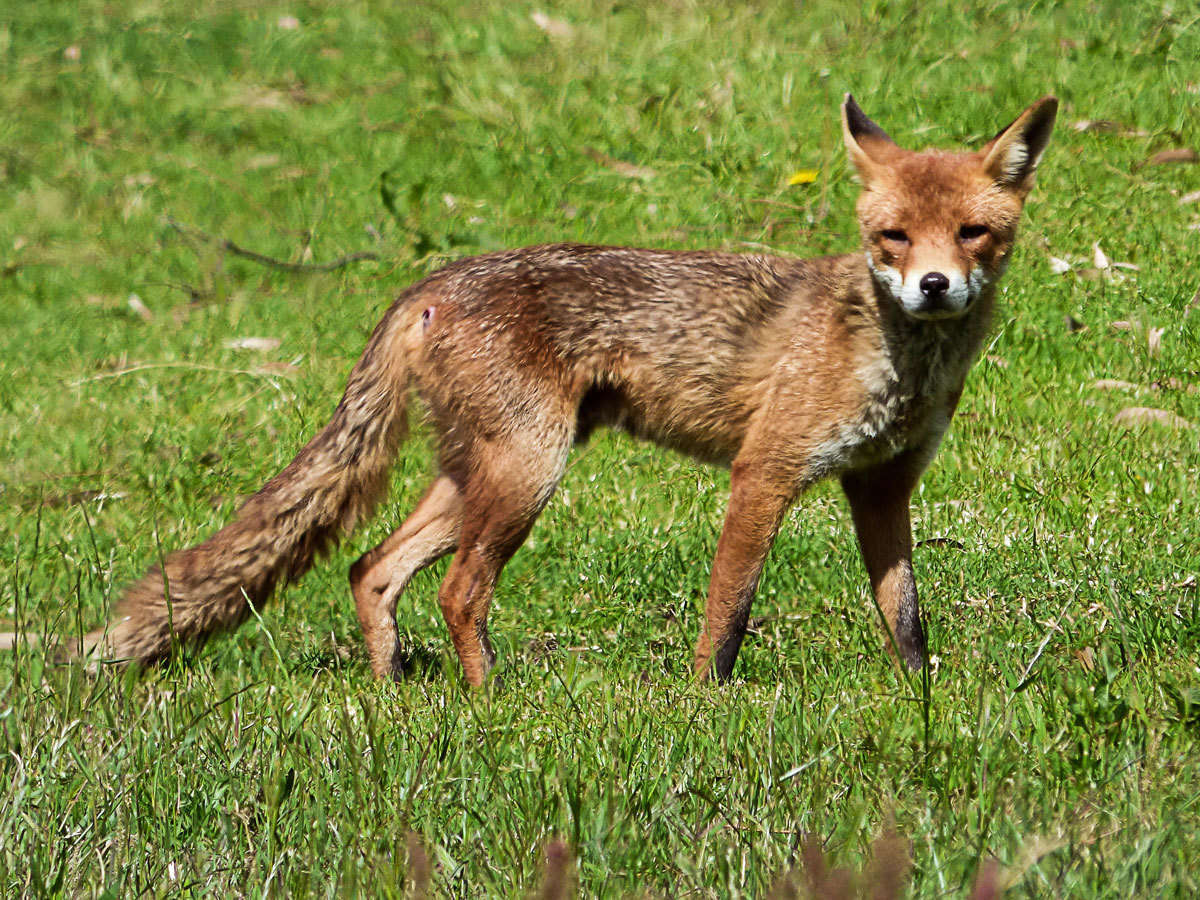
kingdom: Animalia
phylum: Chordata
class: Mammalia
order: Carnivora
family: Canidae
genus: Vulpes
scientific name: Vulpes vulpes
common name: Red fox
